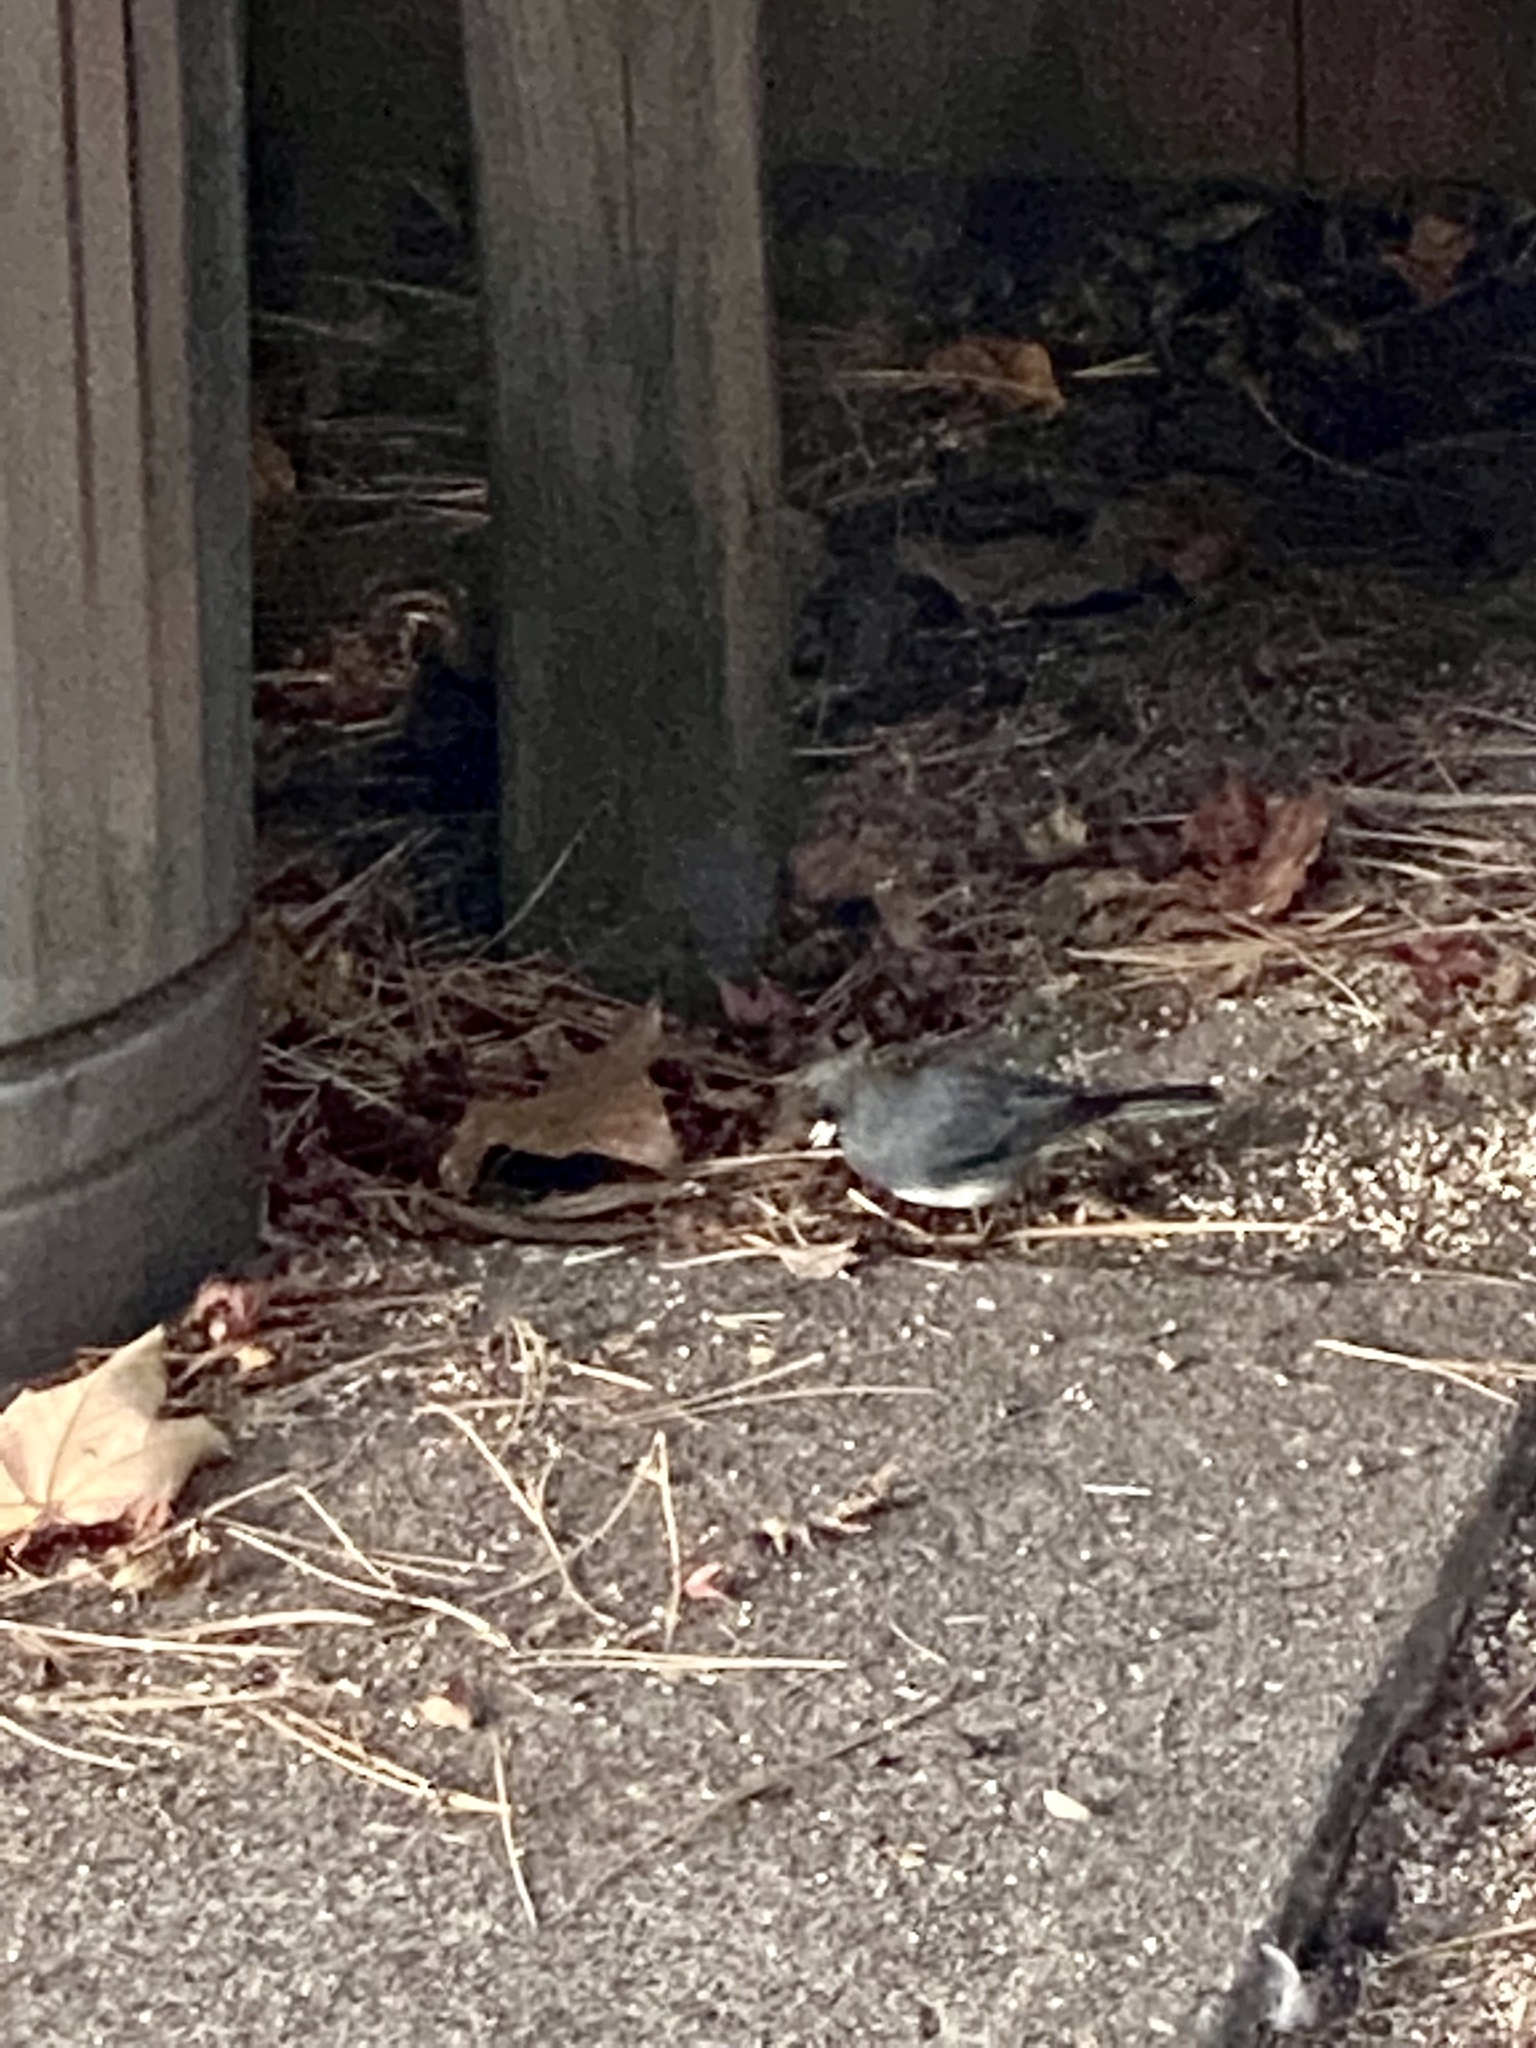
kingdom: Animalia
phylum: Chordata
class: Aves
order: Passeriformes
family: Passerellidae
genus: Junco
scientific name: Junco hyemalis
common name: Dark-eyed junco
